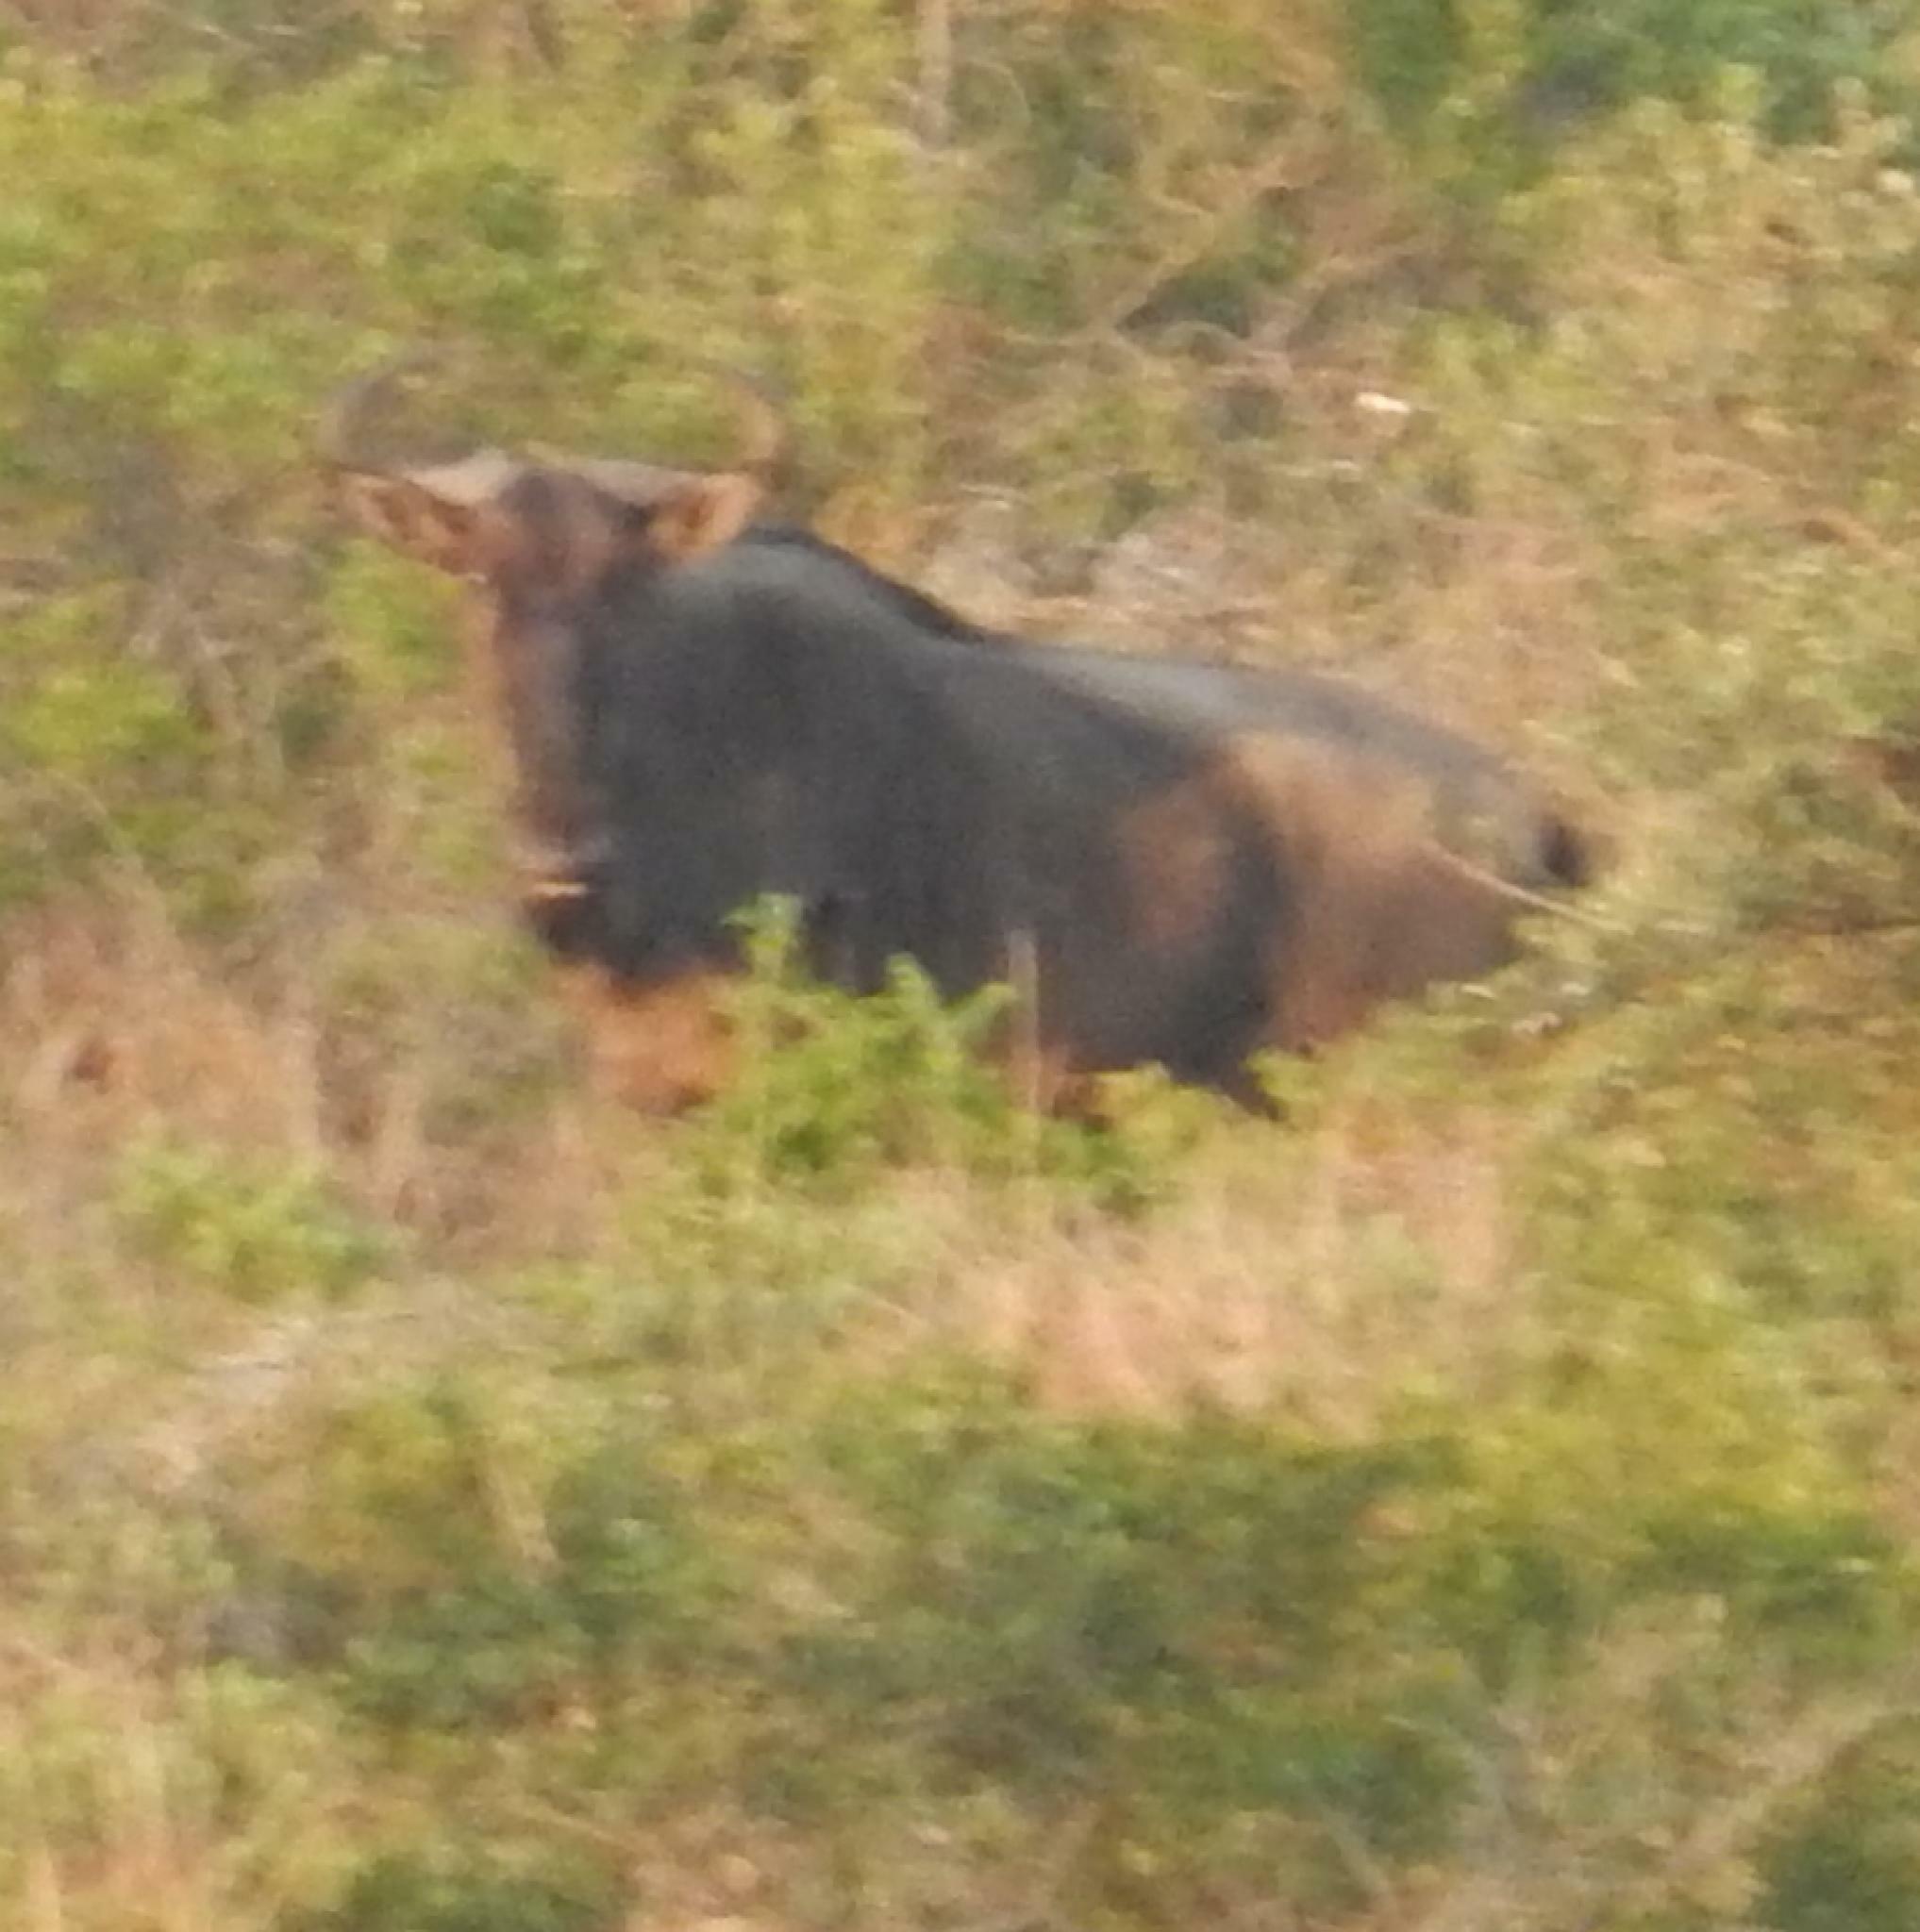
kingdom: Animalia
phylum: Chordata
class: Mammalia
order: Artiodactyla
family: Bovidae
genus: Connochaetes
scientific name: Connochaetes taurinus
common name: Blue wildebeest
